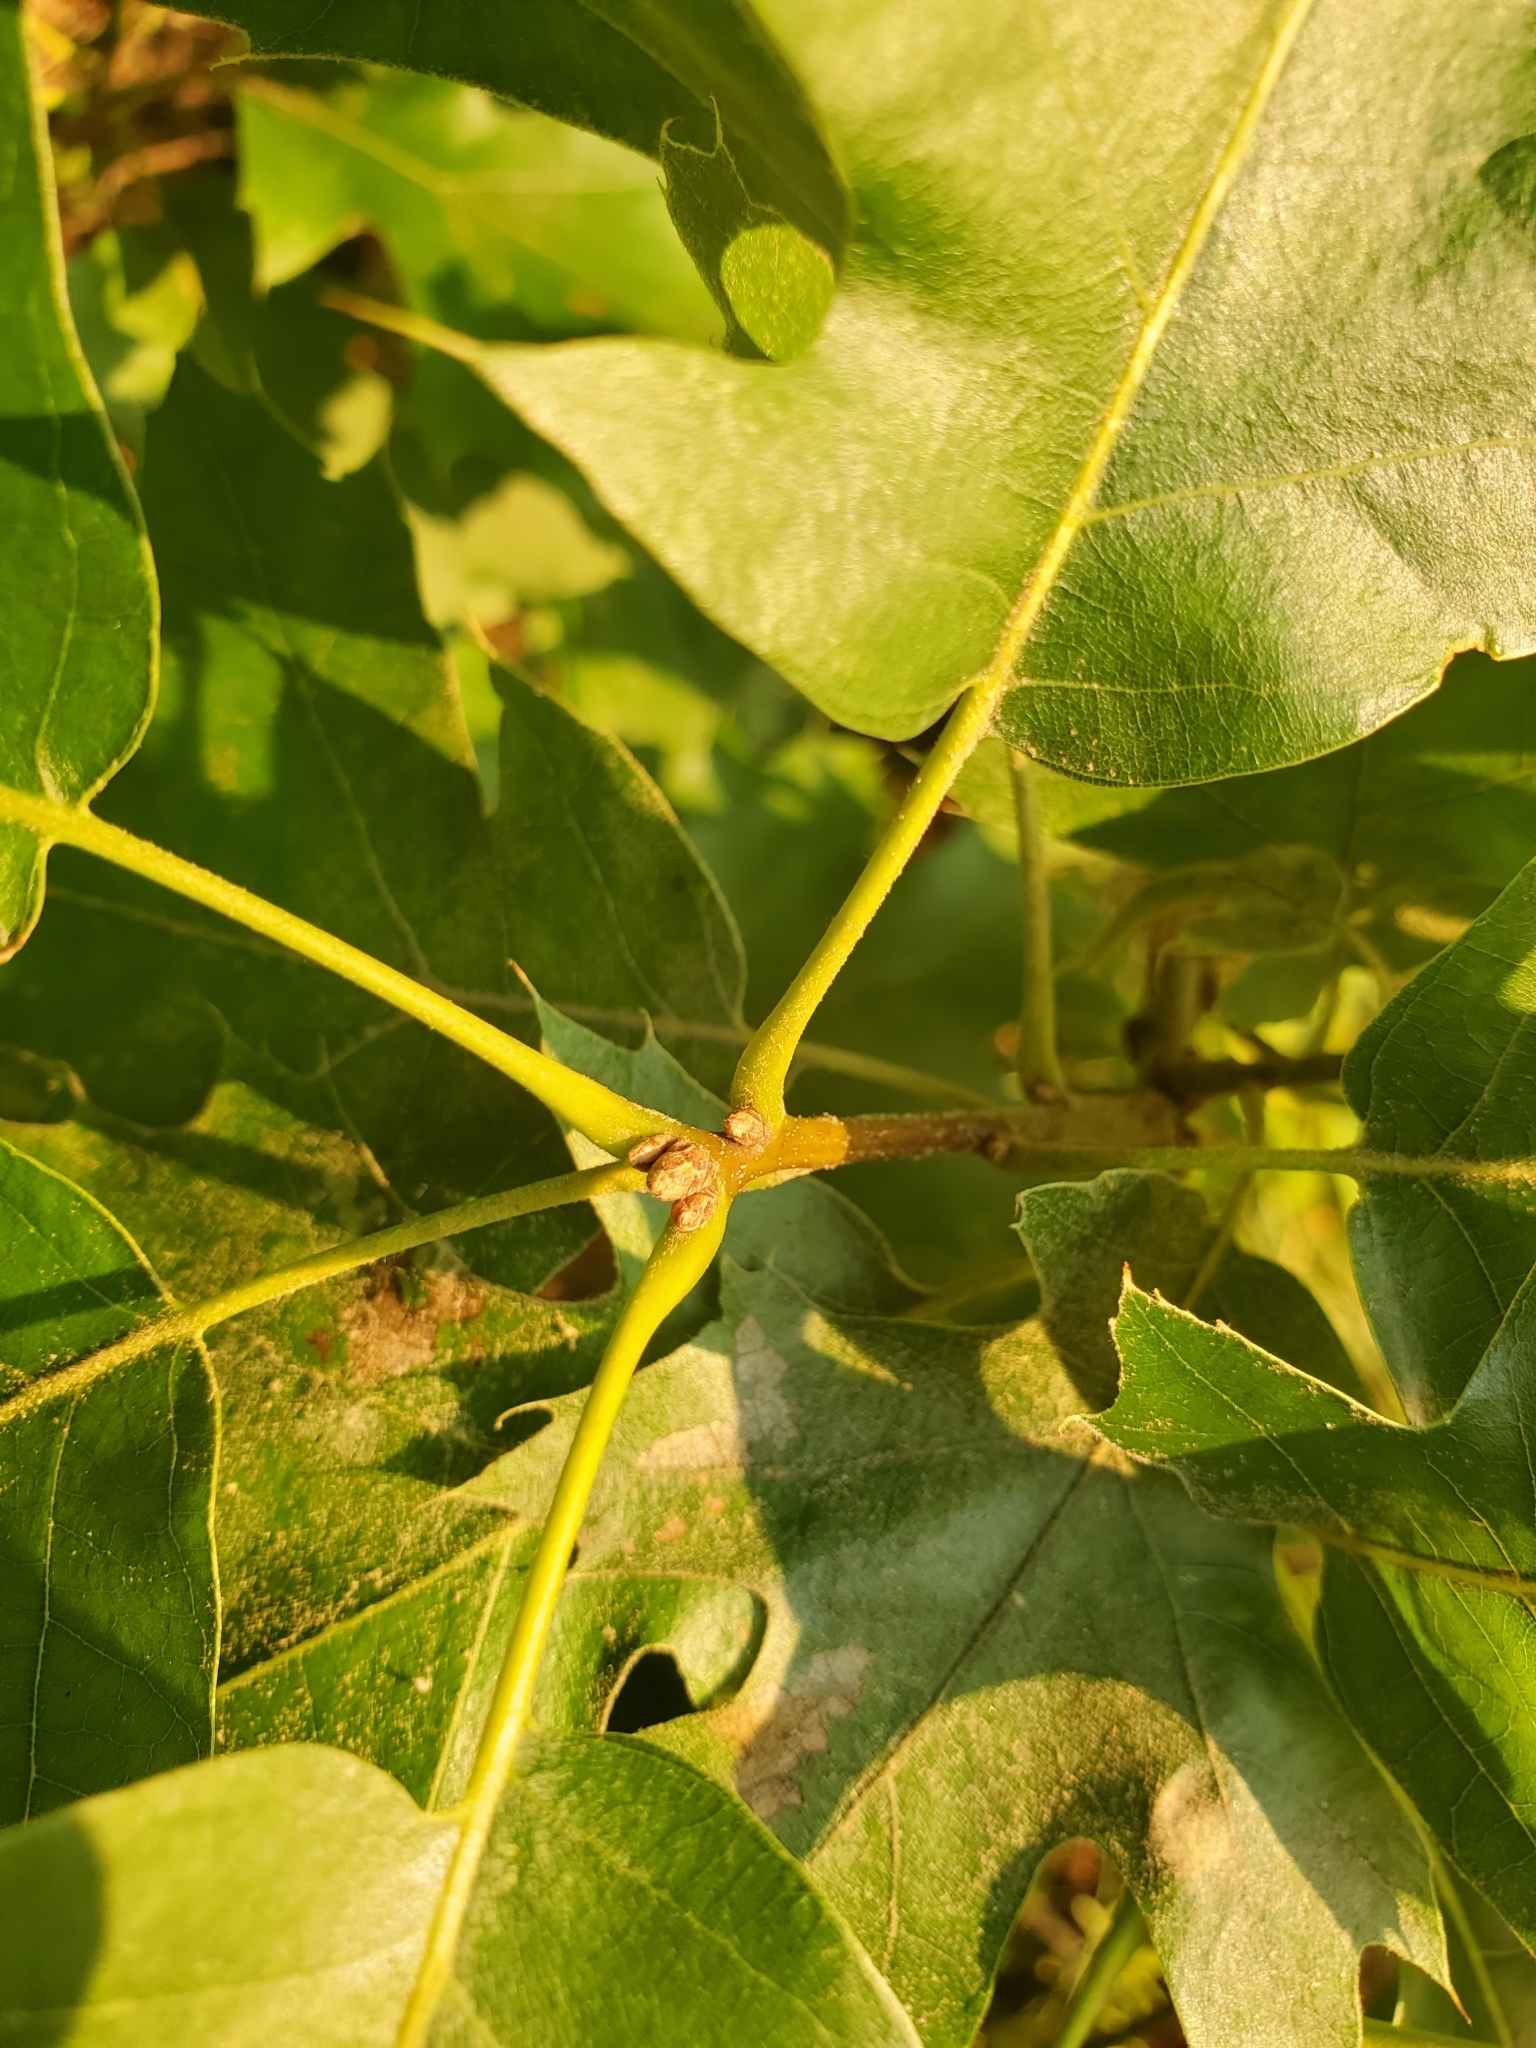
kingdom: Plantae
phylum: Tracheophyta
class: Magnoliopsida
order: Fagales
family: Fagaceae
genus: Quercus
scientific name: Quercus velutina
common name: Black oak
